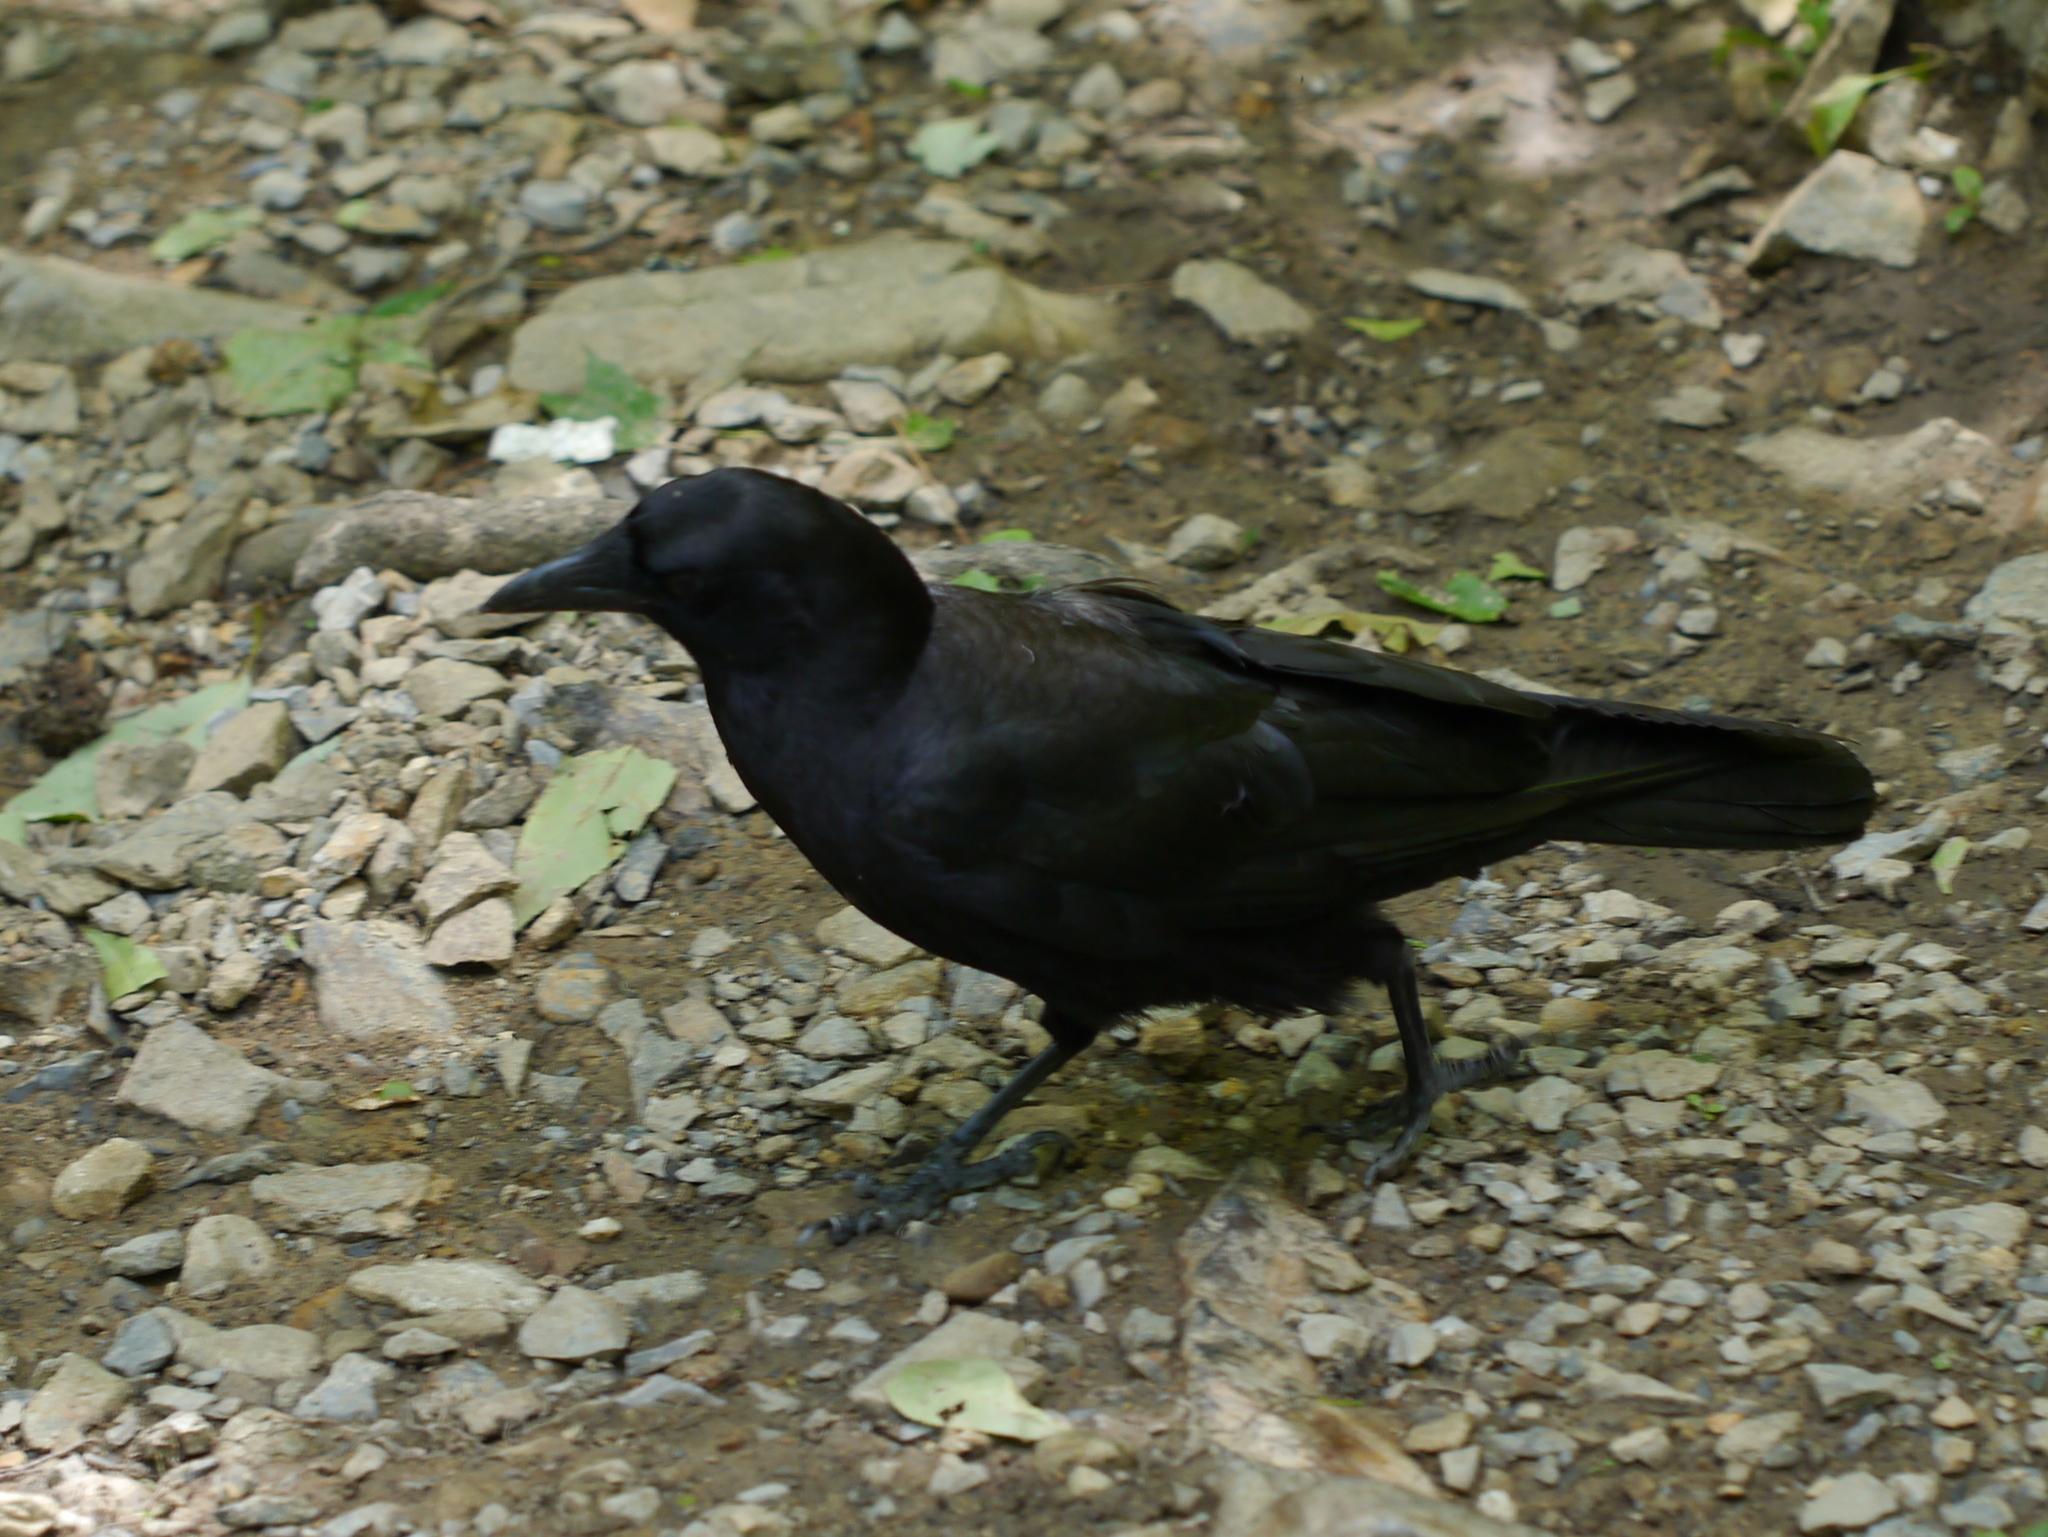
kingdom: Animalia
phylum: Chordata
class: Aves
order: Passeriformes
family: Corvidae
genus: Corvus
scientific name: Corvus brachyrhynchos
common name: American crow
